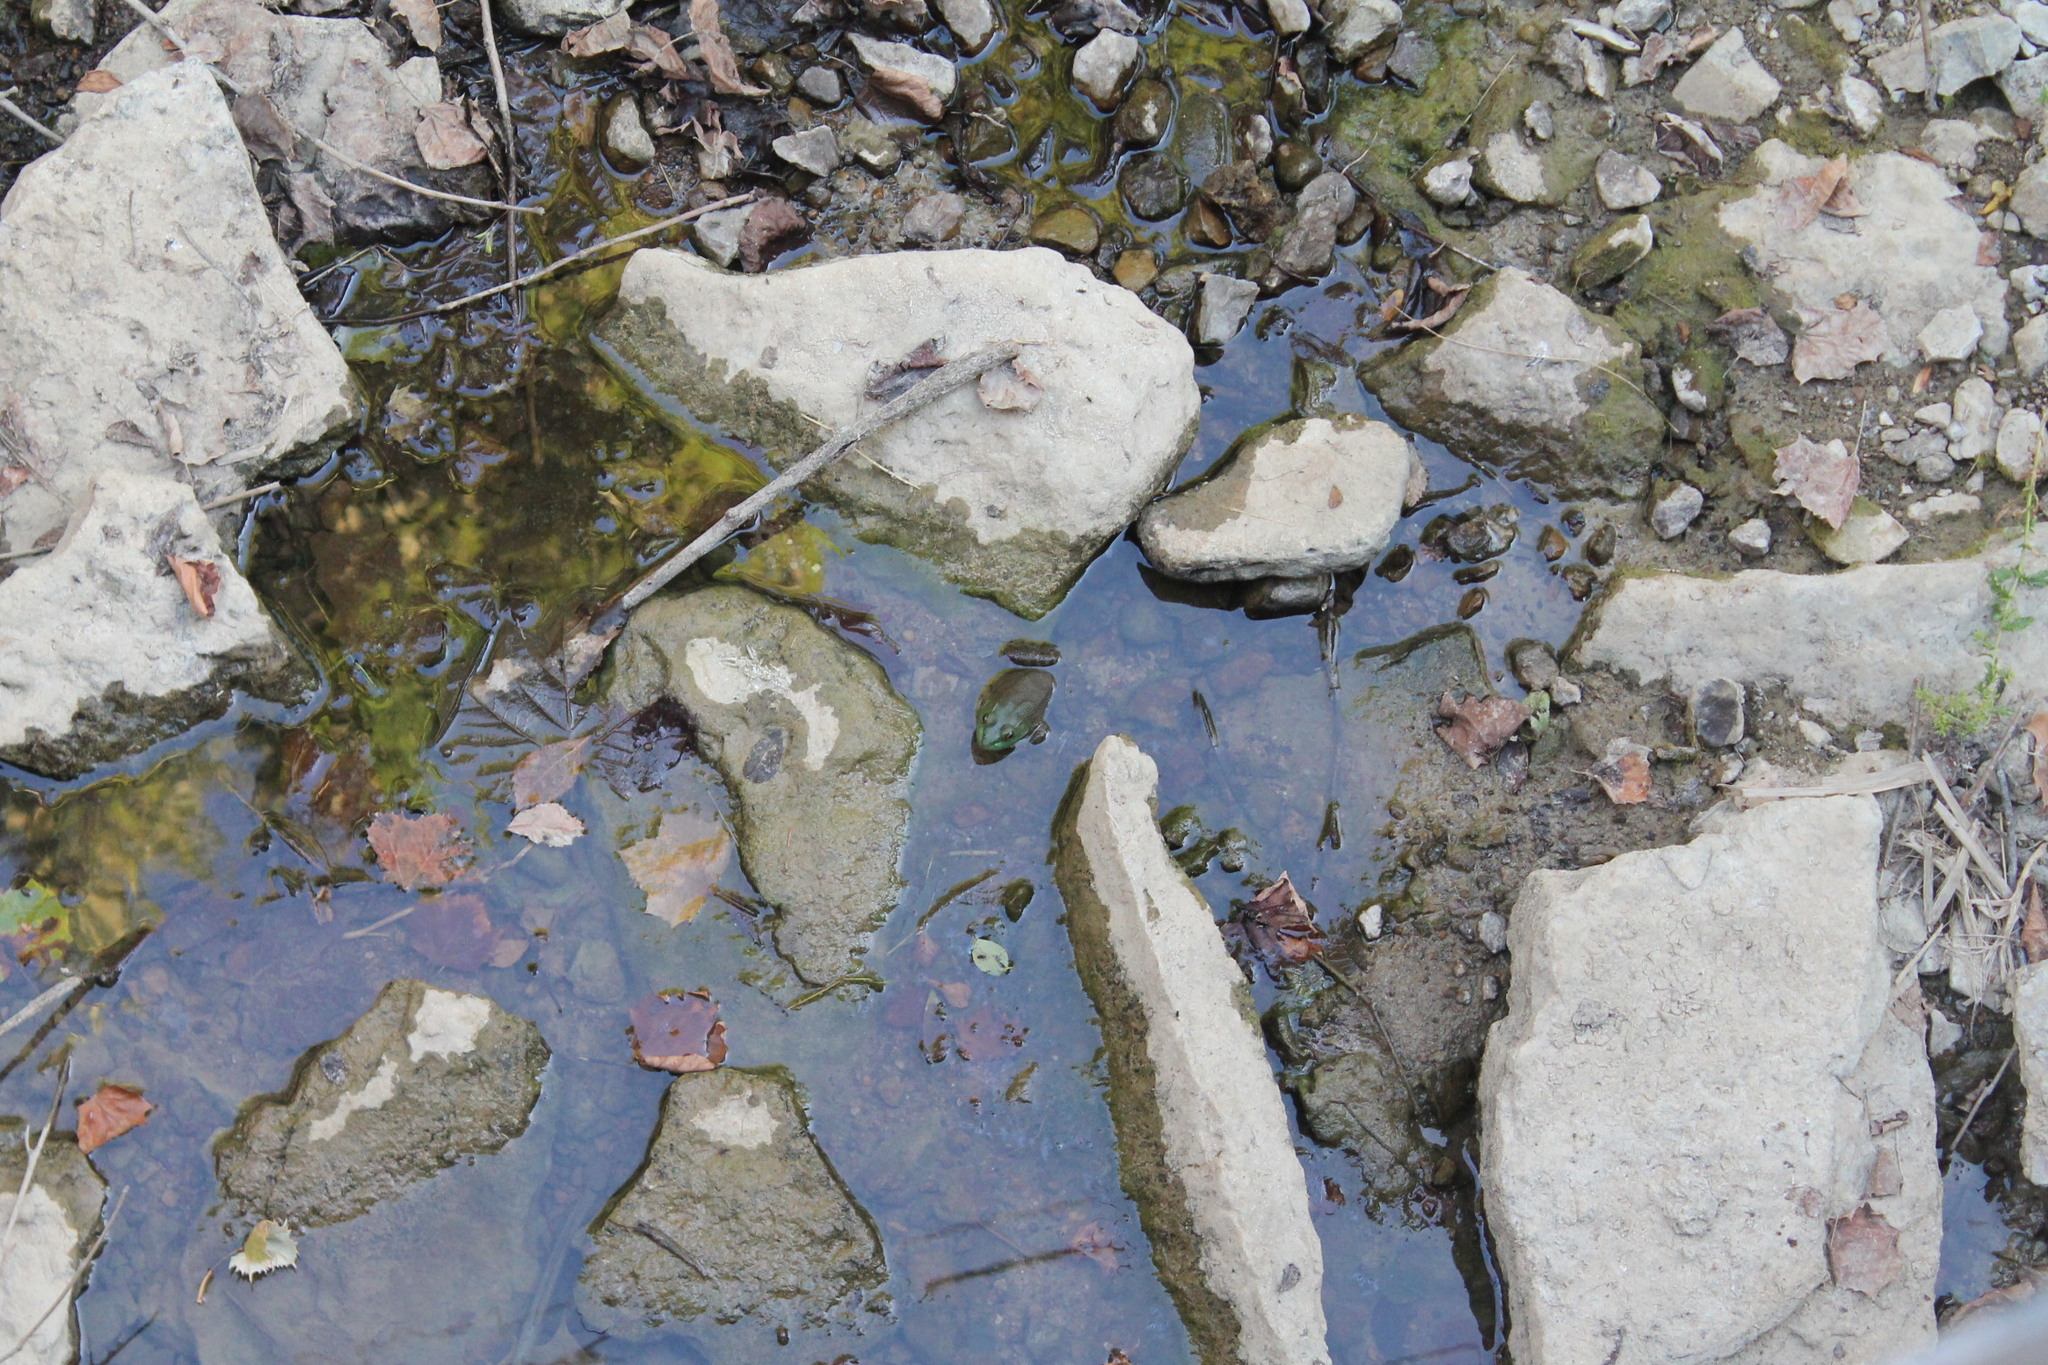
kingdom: Animalia
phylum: Chordata
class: Amphibia
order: Anura
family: Ranidae
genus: Lithobates
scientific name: Lithobates clamitans
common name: Green frog
